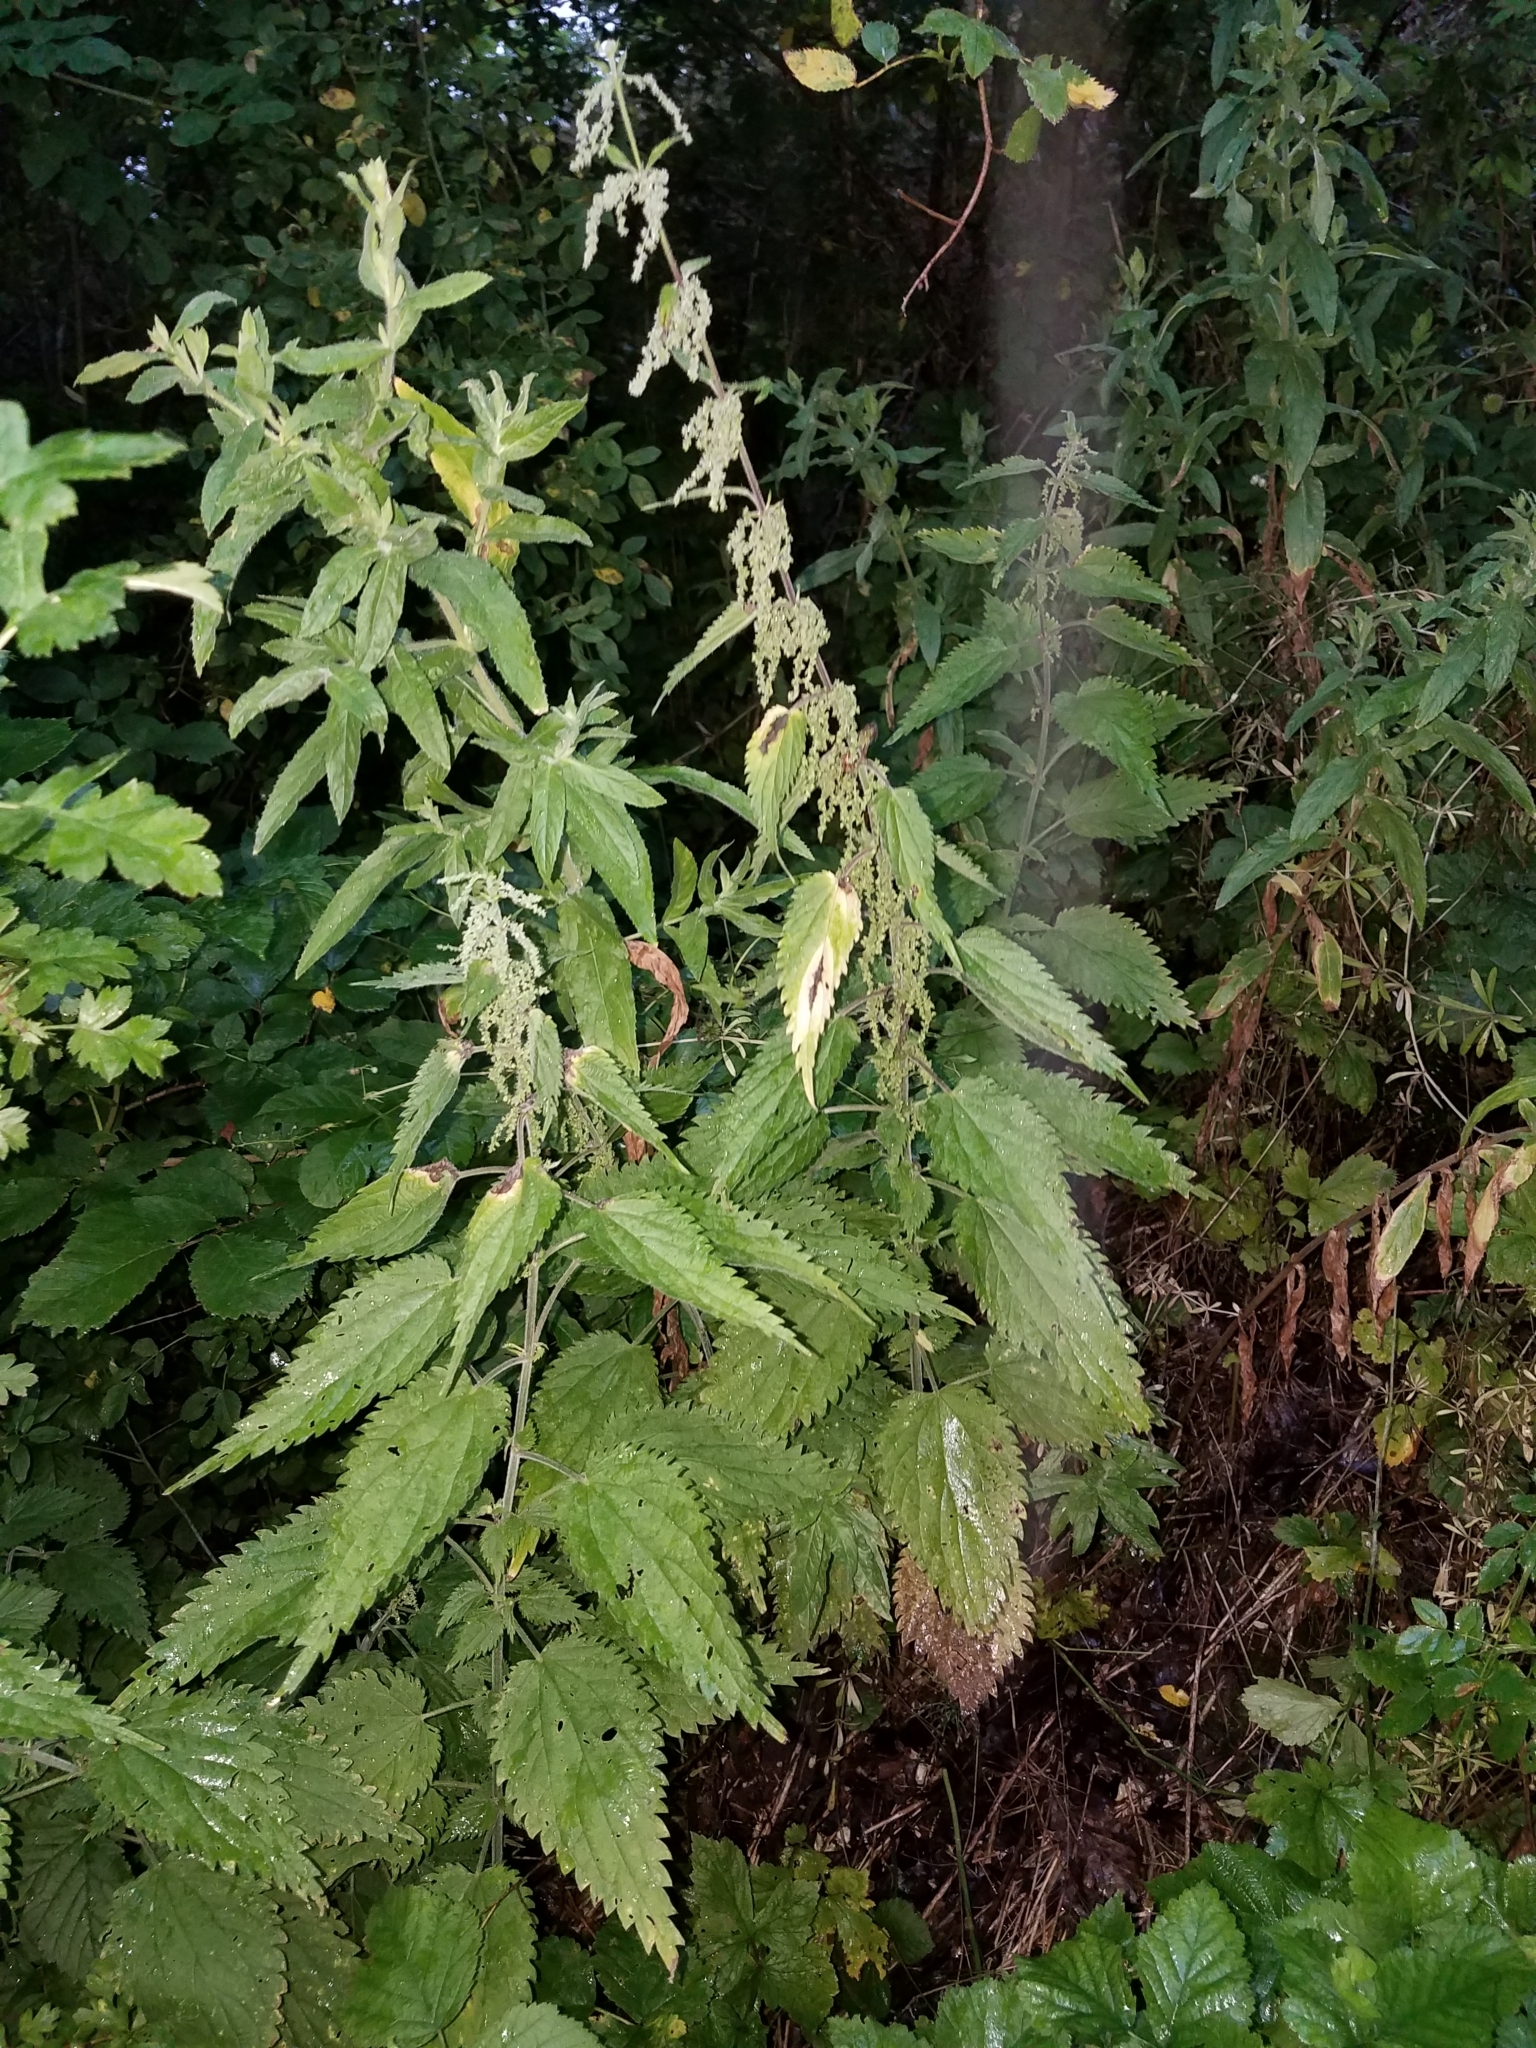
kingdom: Plantae
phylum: Tracheophyta
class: Magnoliopsida
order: Rosales
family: Urticaceae
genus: Urtica
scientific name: Urtica dioica
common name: Common nettle
